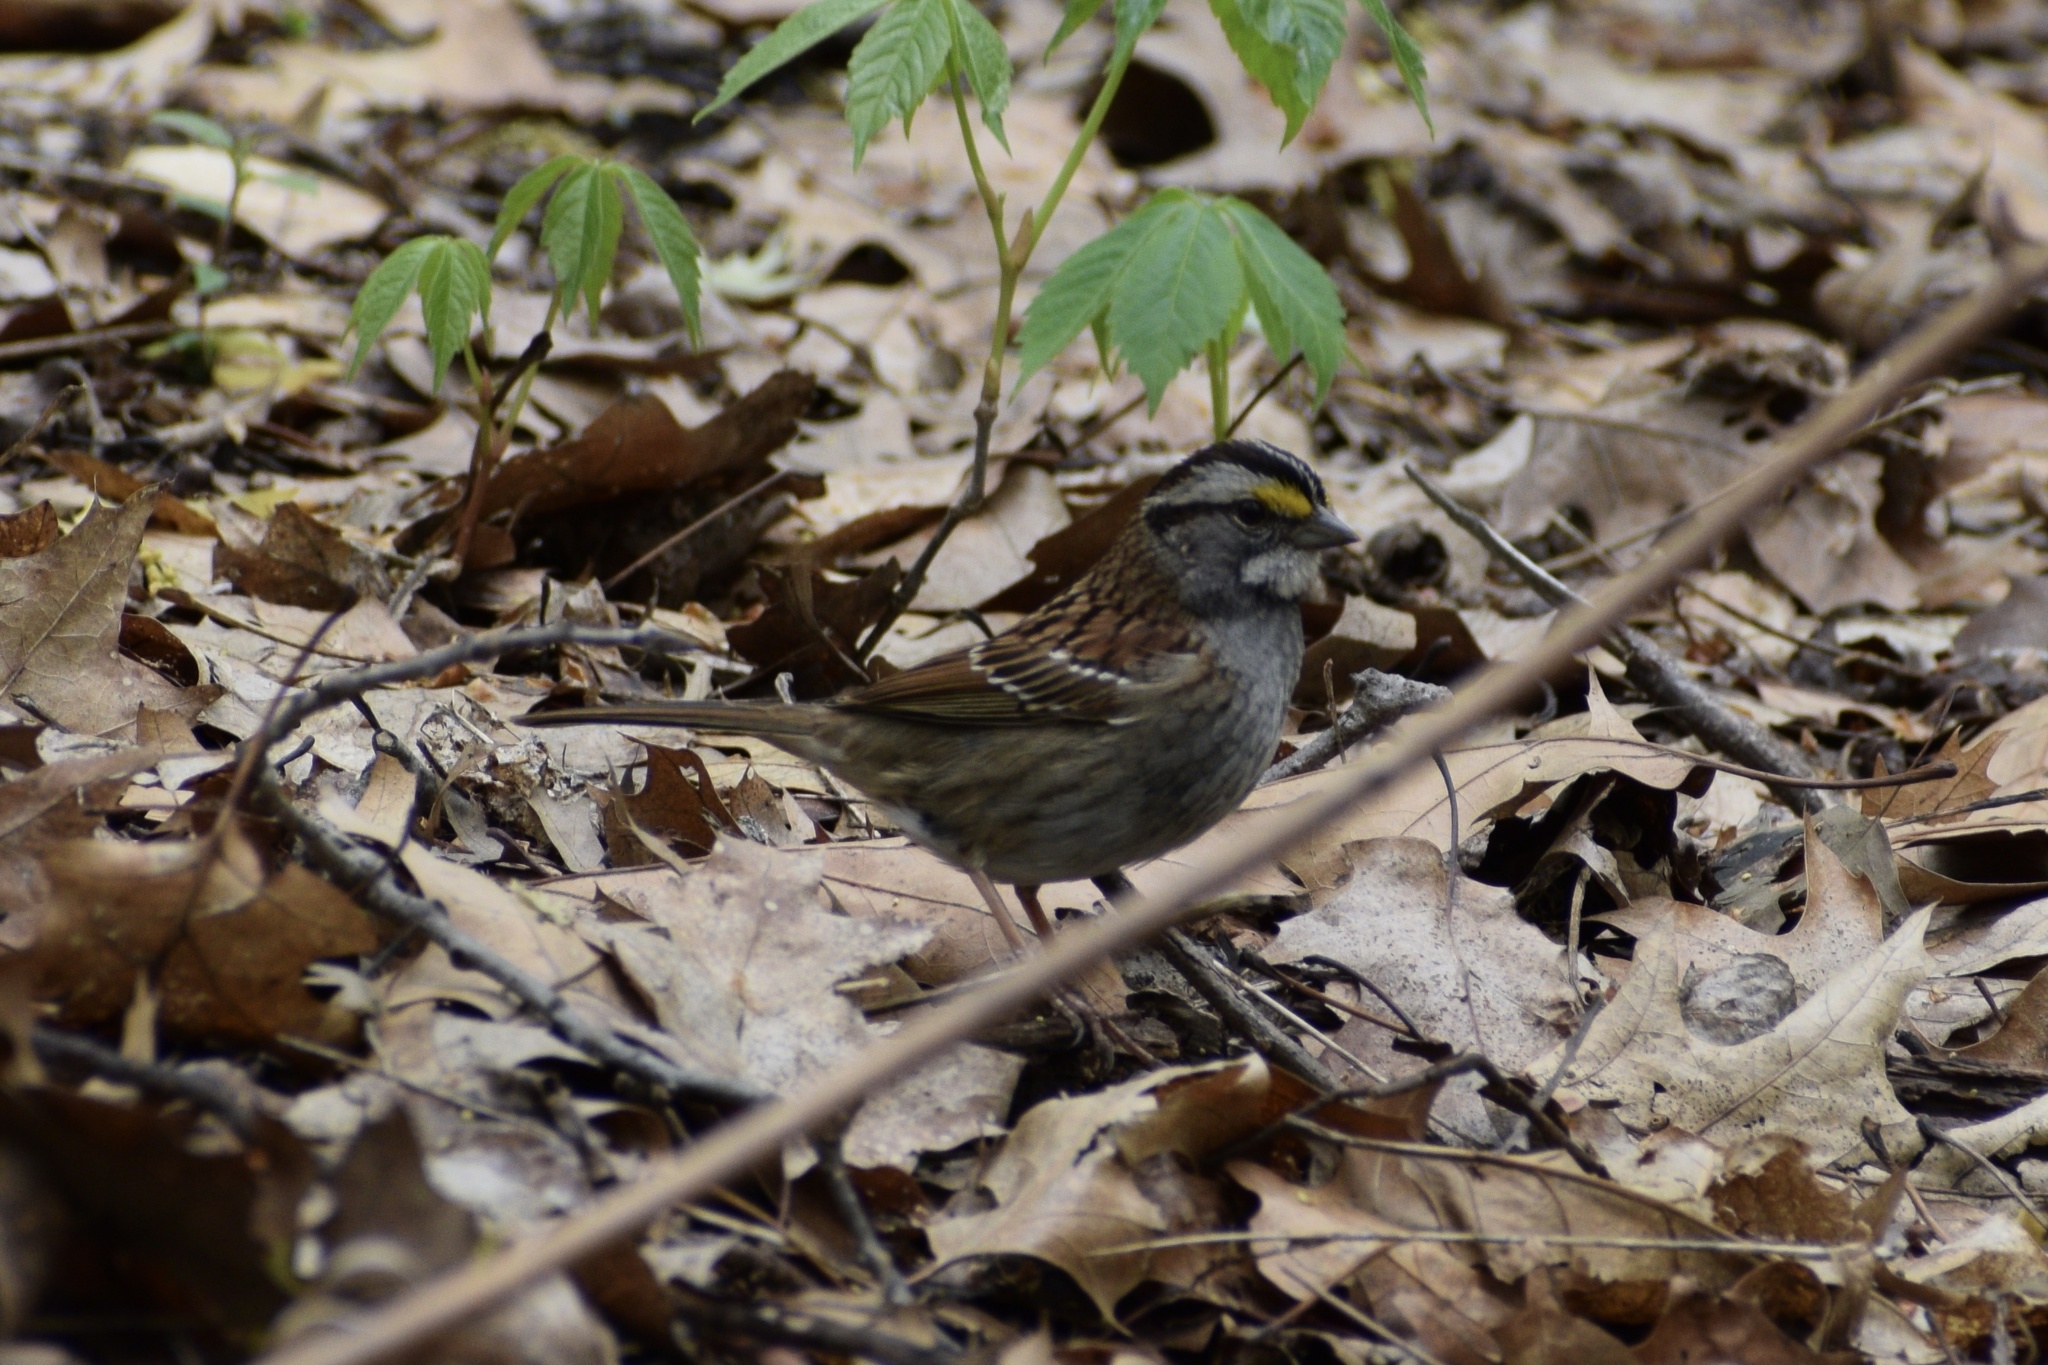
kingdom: Animalia
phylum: Chordata
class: Aves
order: Passeriformes
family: Passerellidae
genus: Zonotrichia
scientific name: Zonotrichia albicollis
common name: White-throated sparrow
